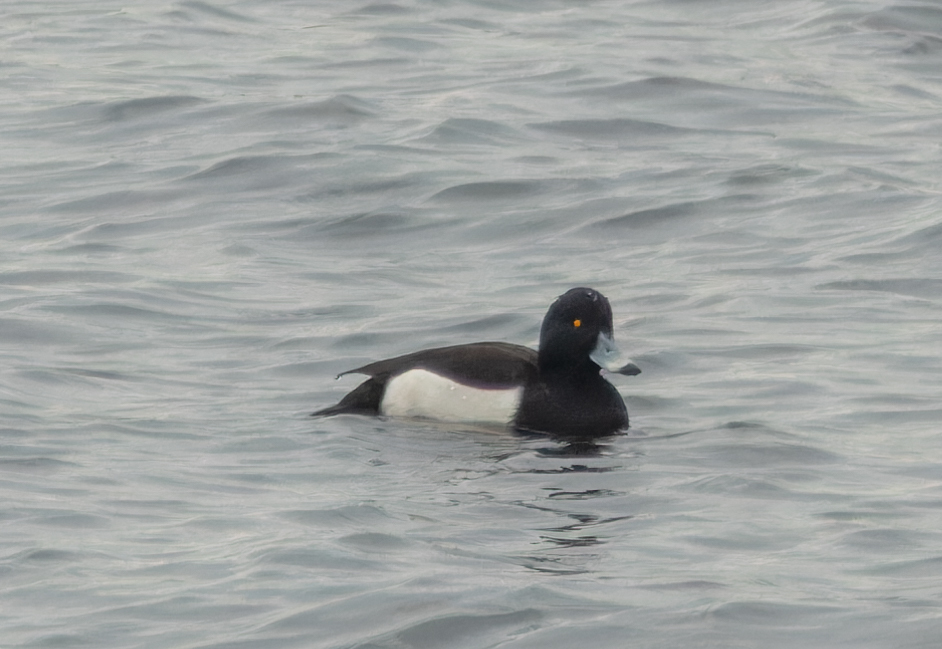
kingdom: Animalia
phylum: Chordata
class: Aves
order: Anseriformes
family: Anatidae
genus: Aythya
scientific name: Aythya fuligula
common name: Tufted duck
